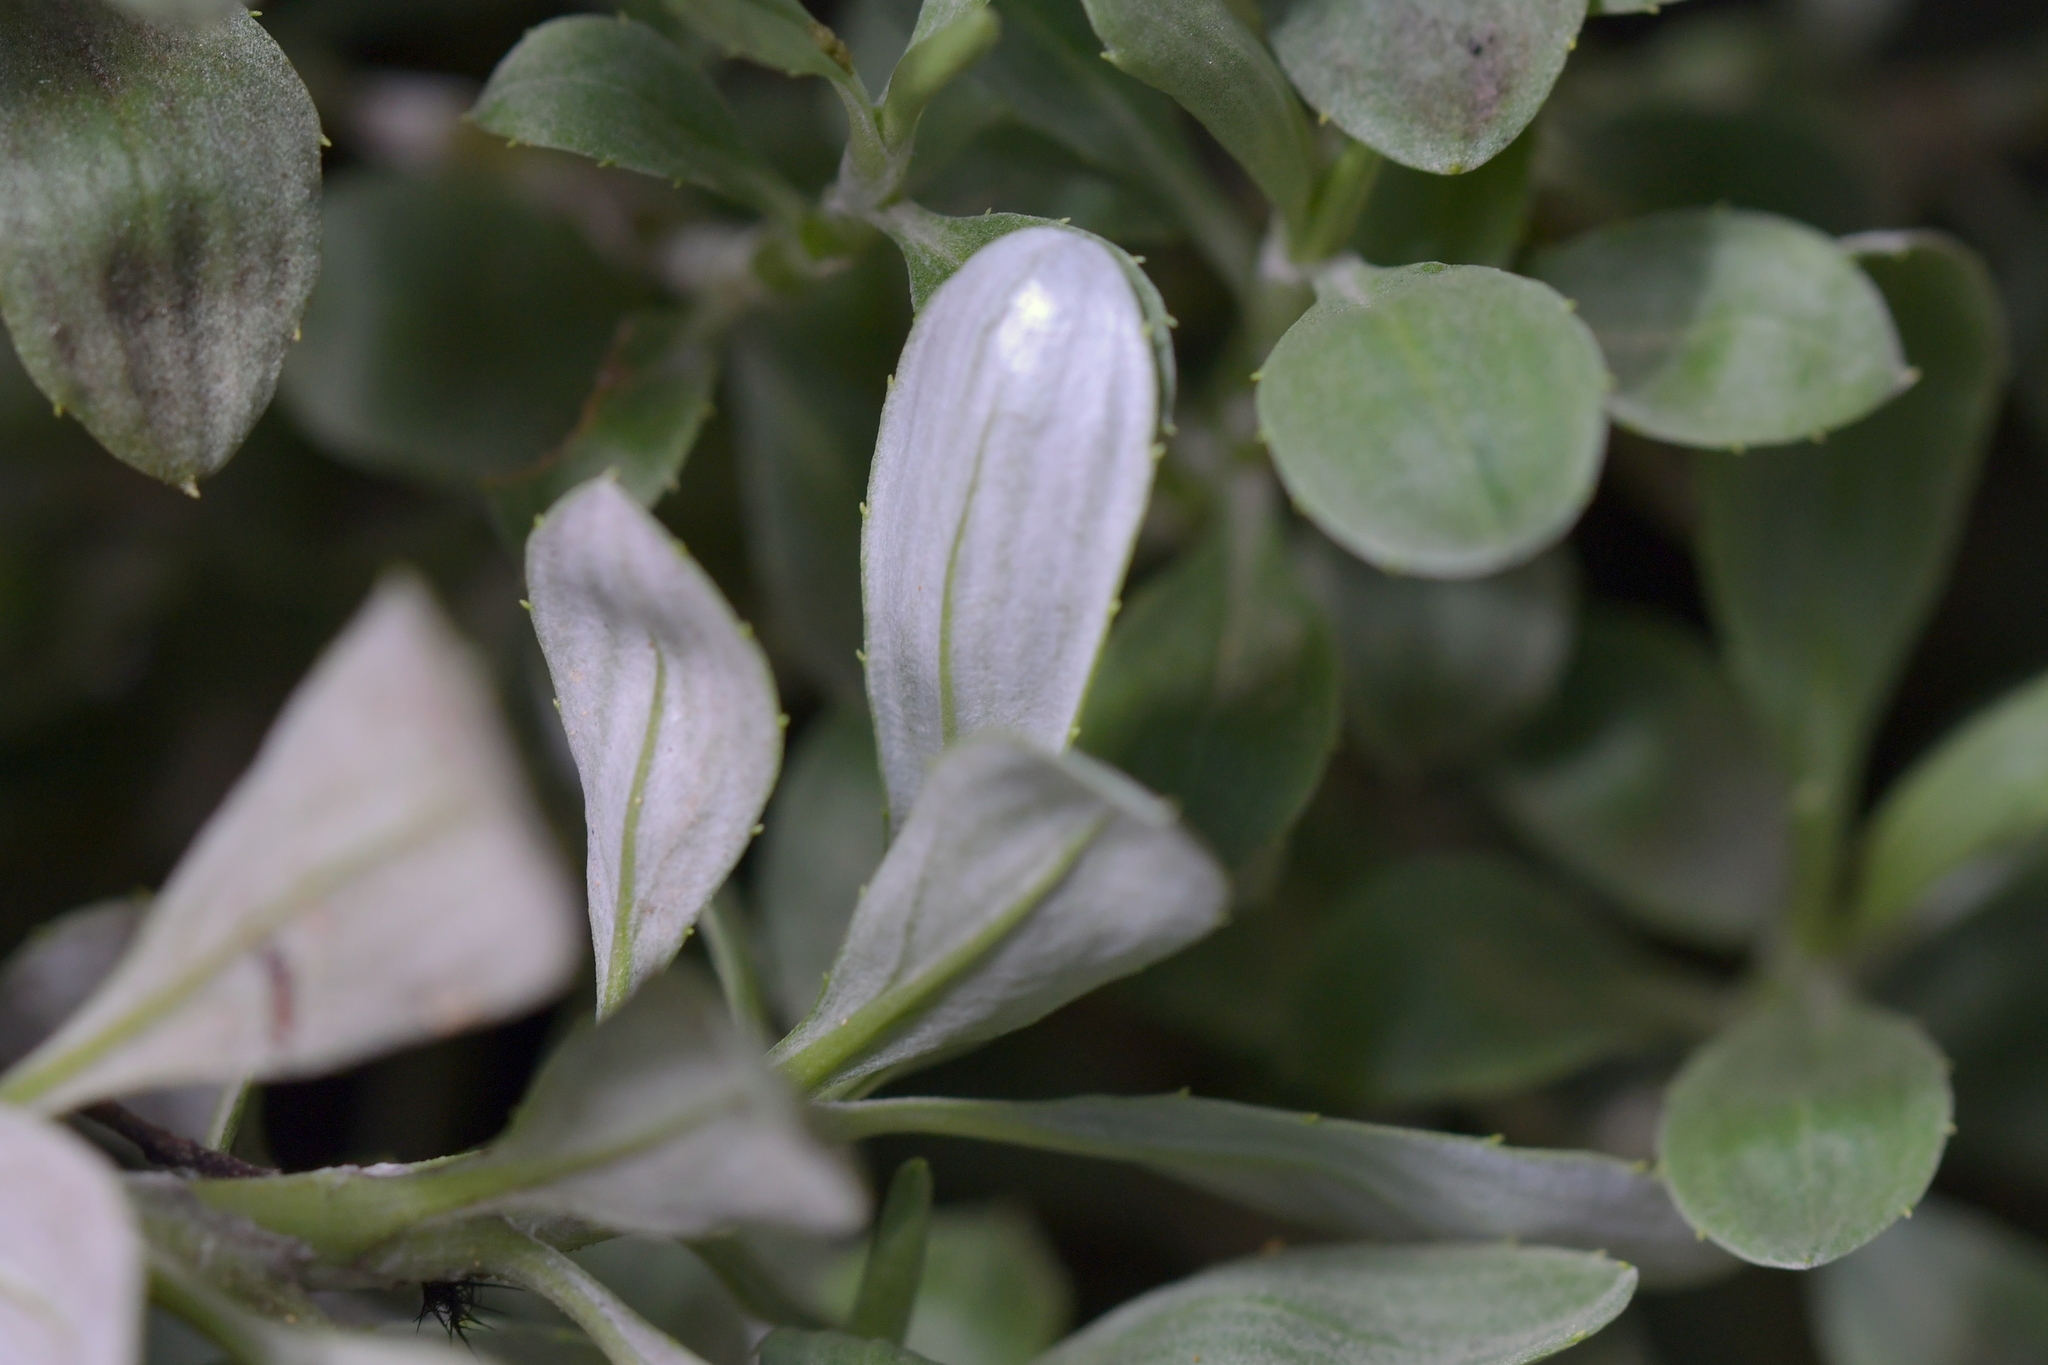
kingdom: Plantae
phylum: Tracheophyta
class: Magnoliopsida
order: Asterales
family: Asteraceae
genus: Celmisia
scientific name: Celmisia durietzii
